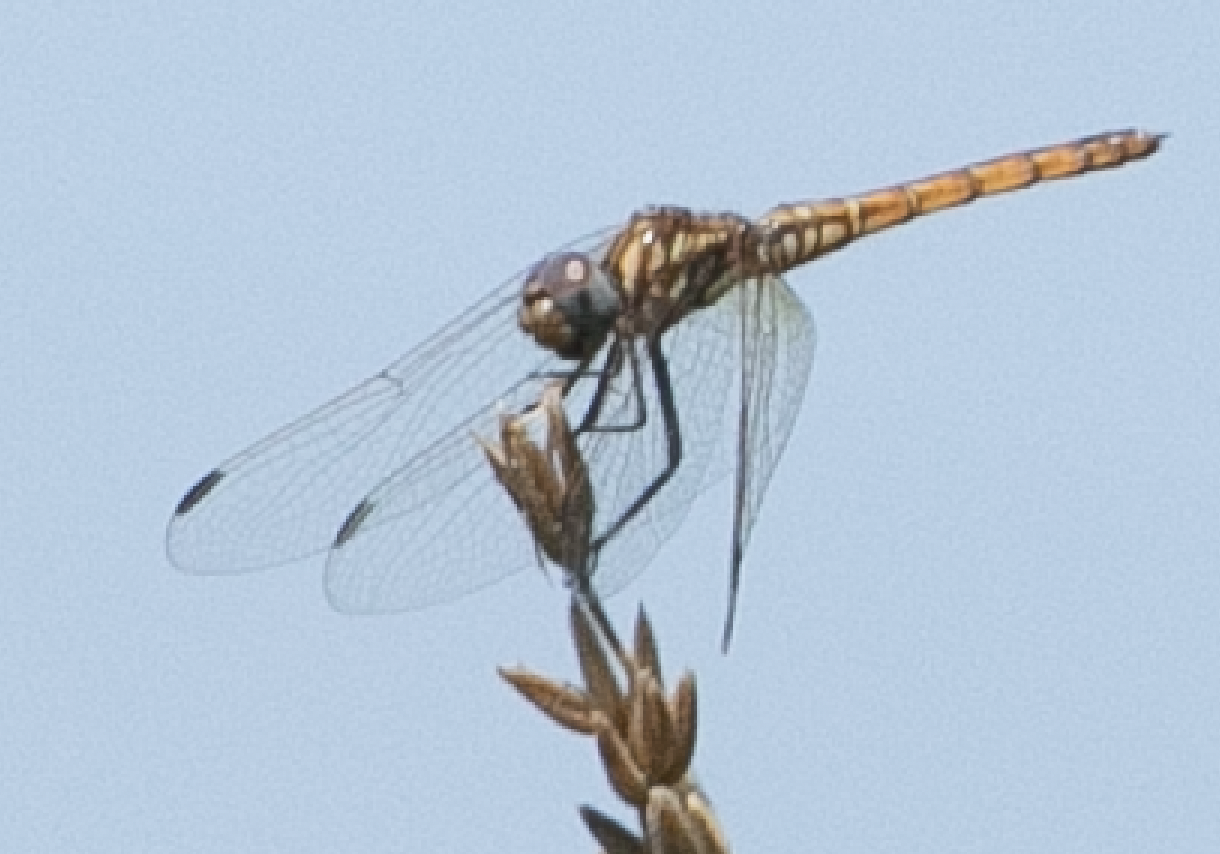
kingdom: Animalia
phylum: Arthropoda
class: Insecta
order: Odonata
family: Libellulidae
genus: Trithemis
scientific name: Trithemis annulata
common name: Violet dropwing
